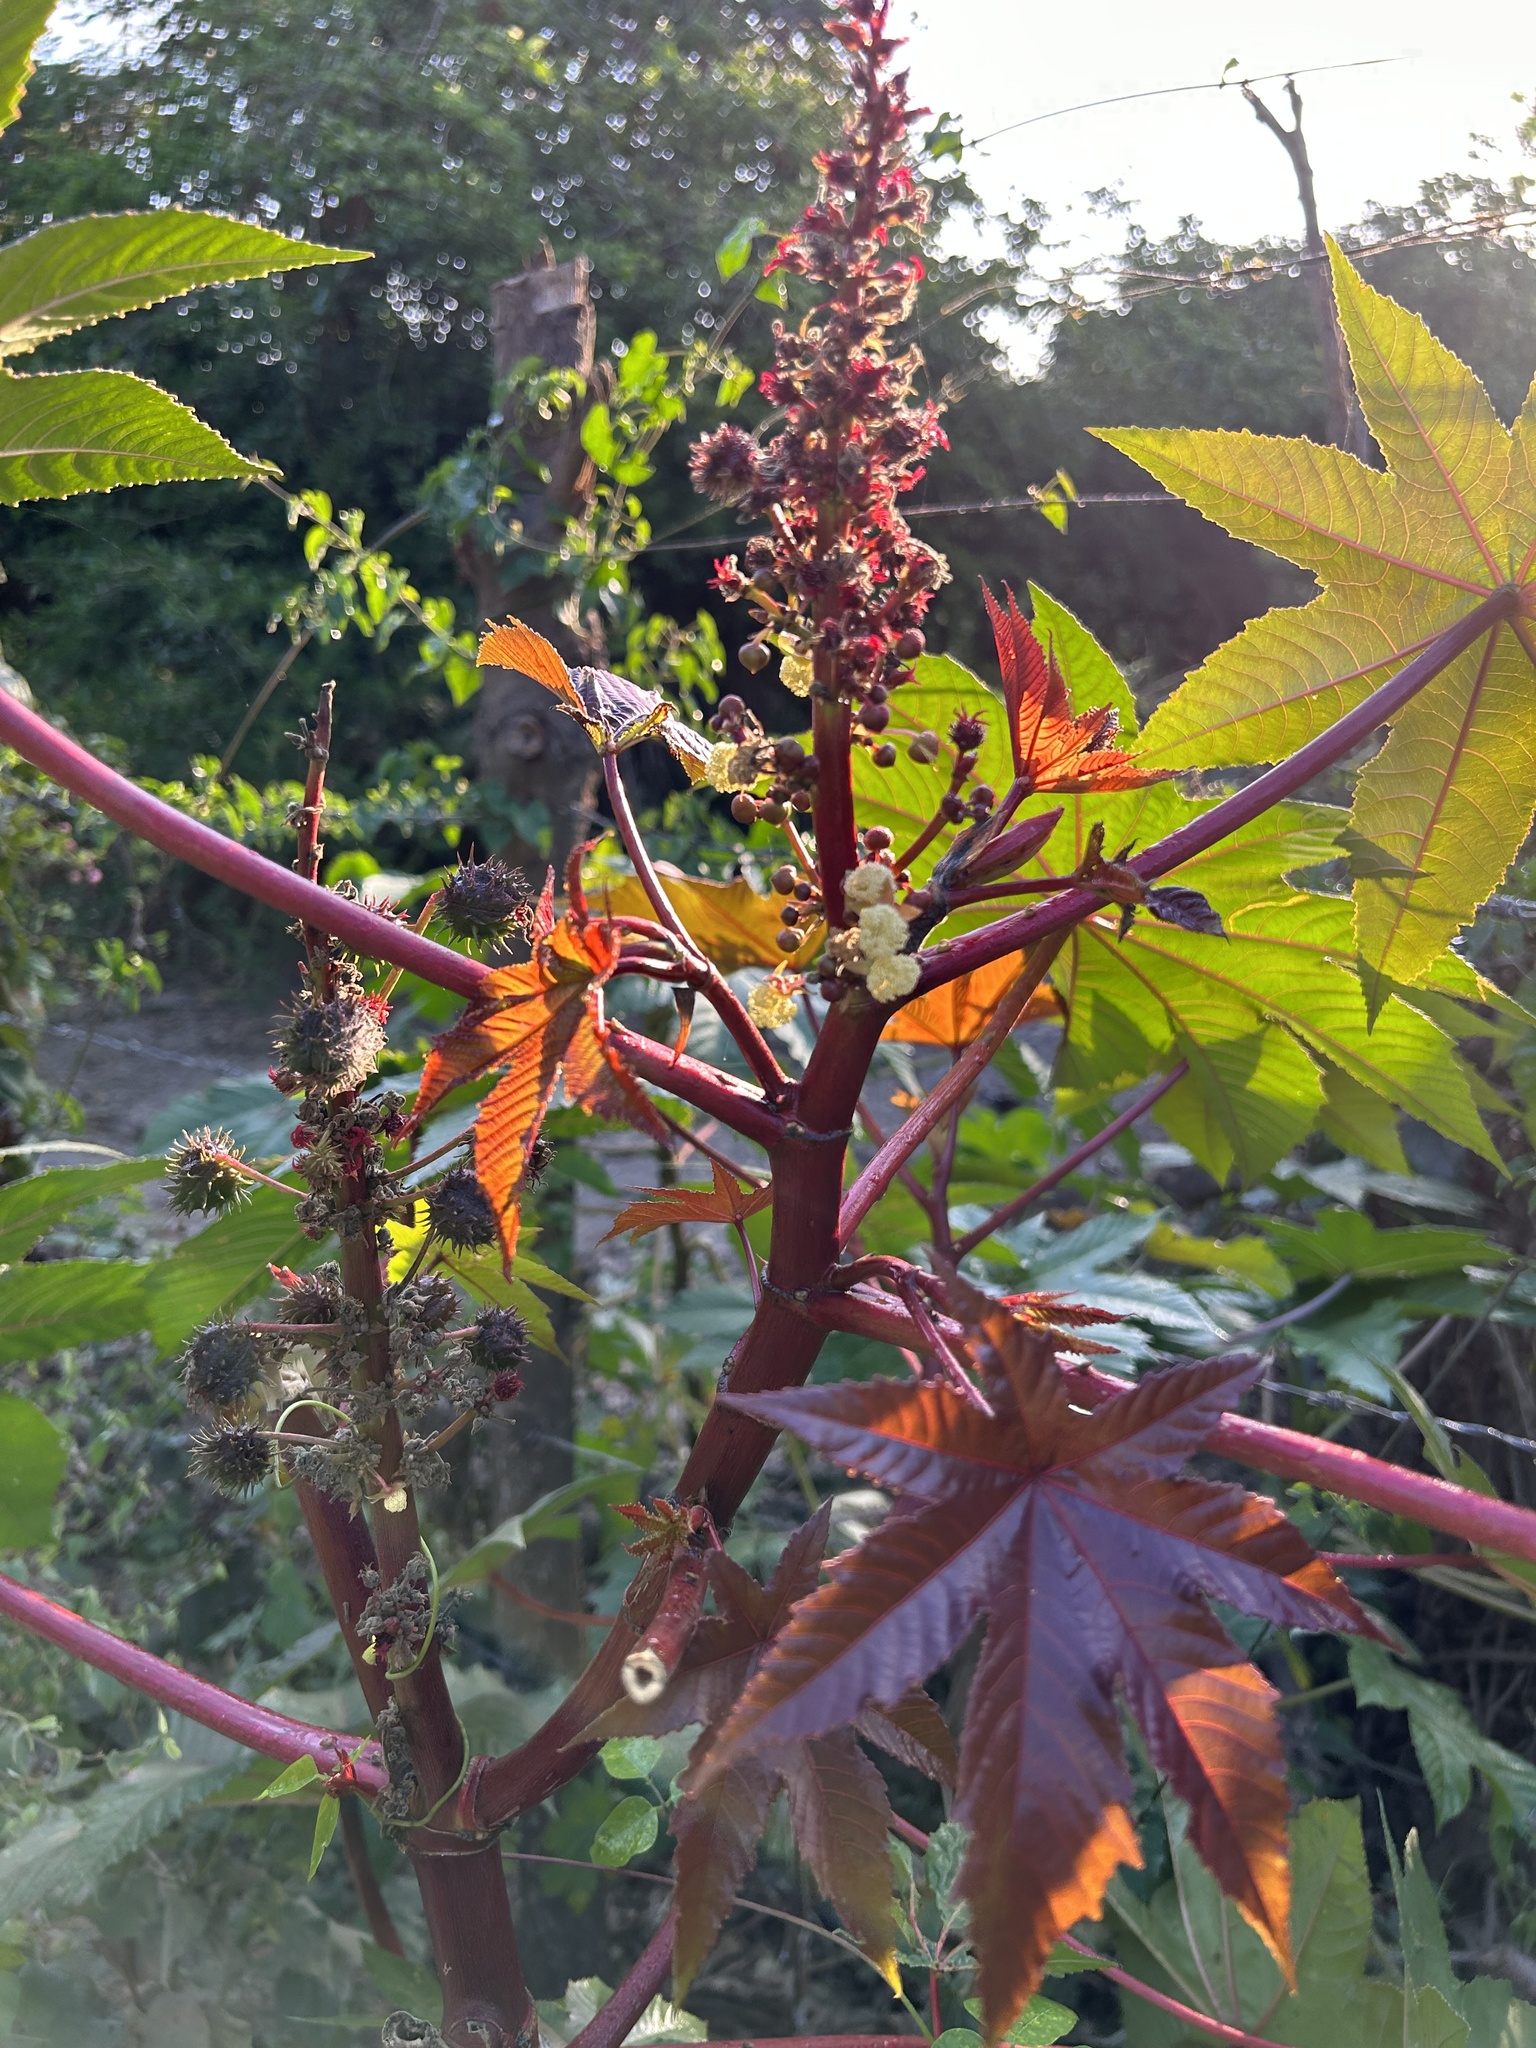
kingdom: Plantae
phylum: Tracheophyta
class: Magnoliopsida
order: Malpighiales
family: Euphorbiaceae
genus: Ricinus
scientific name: Ricinus communis
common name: Castor-oil-plant
